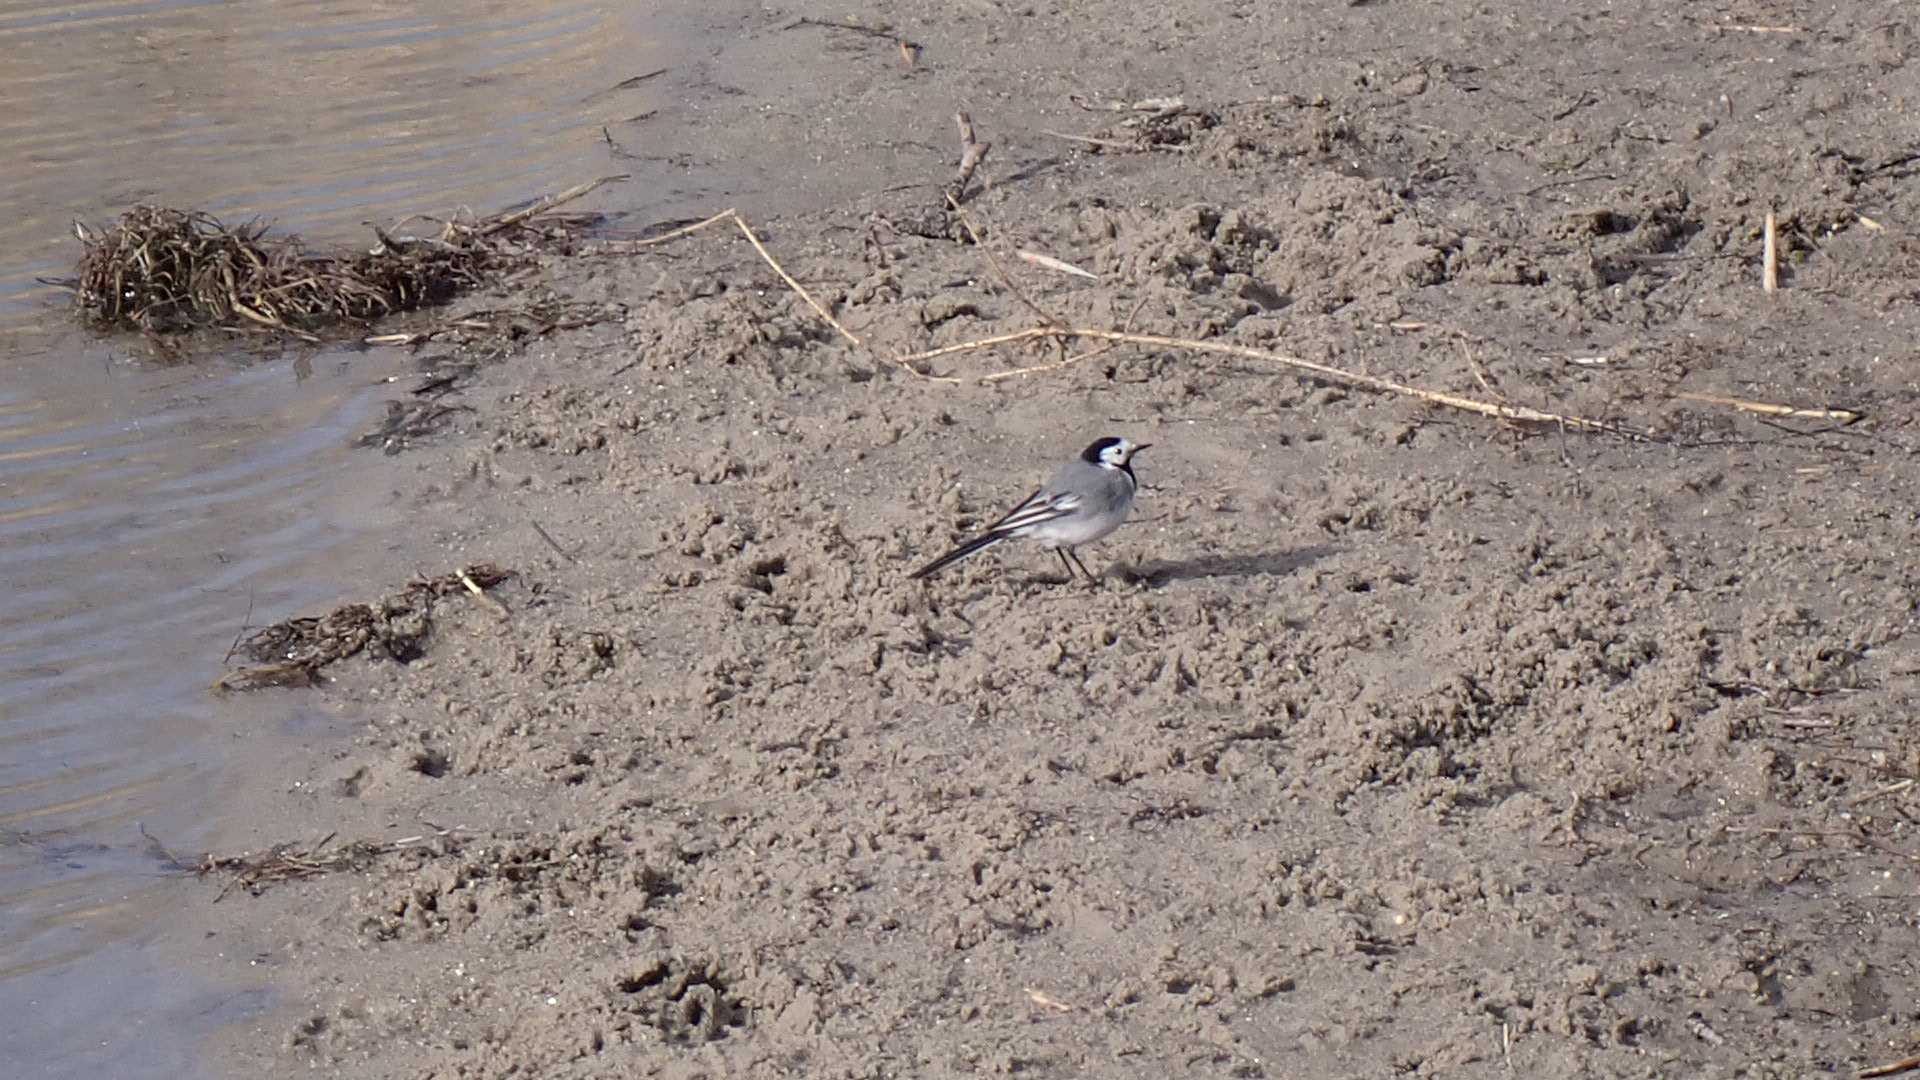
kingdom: Animalia
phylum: Chordata
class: Aves
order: Passeriformes
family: Motacillidae
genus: Motacilla
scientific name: Motacilla alba
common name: White wagtail
